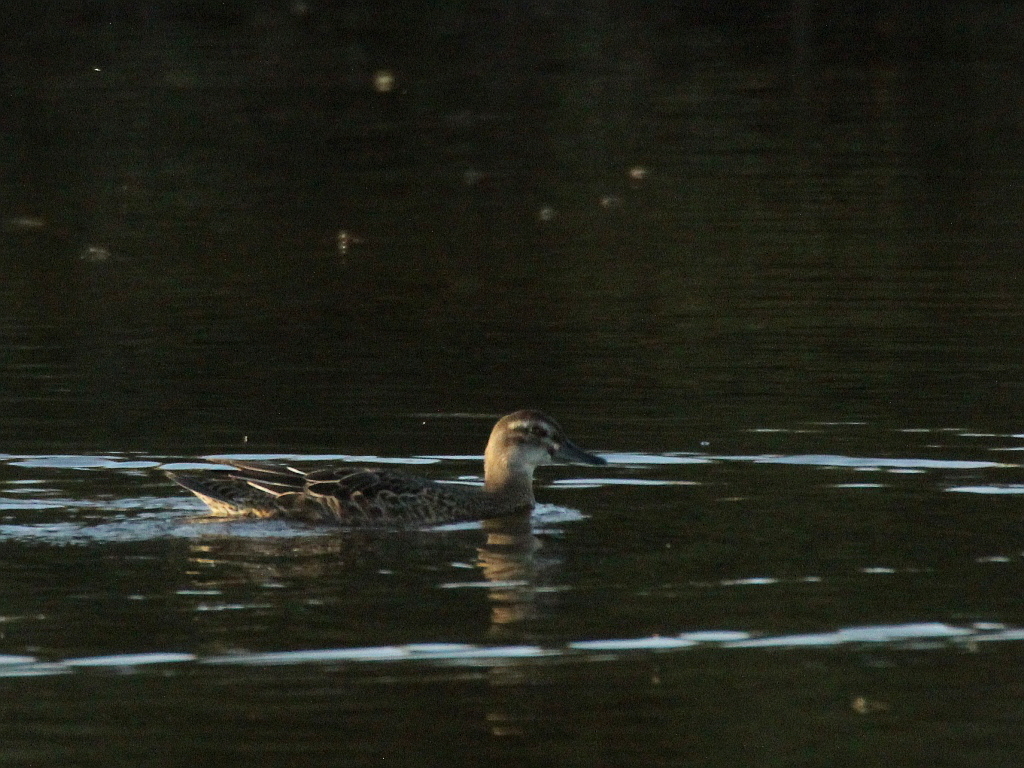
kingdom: Animalia
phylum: Chordata
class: Aves
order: Anseriformes
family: Anatidae
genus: Spatula
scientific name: Spatula querquedula
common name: Garganey
